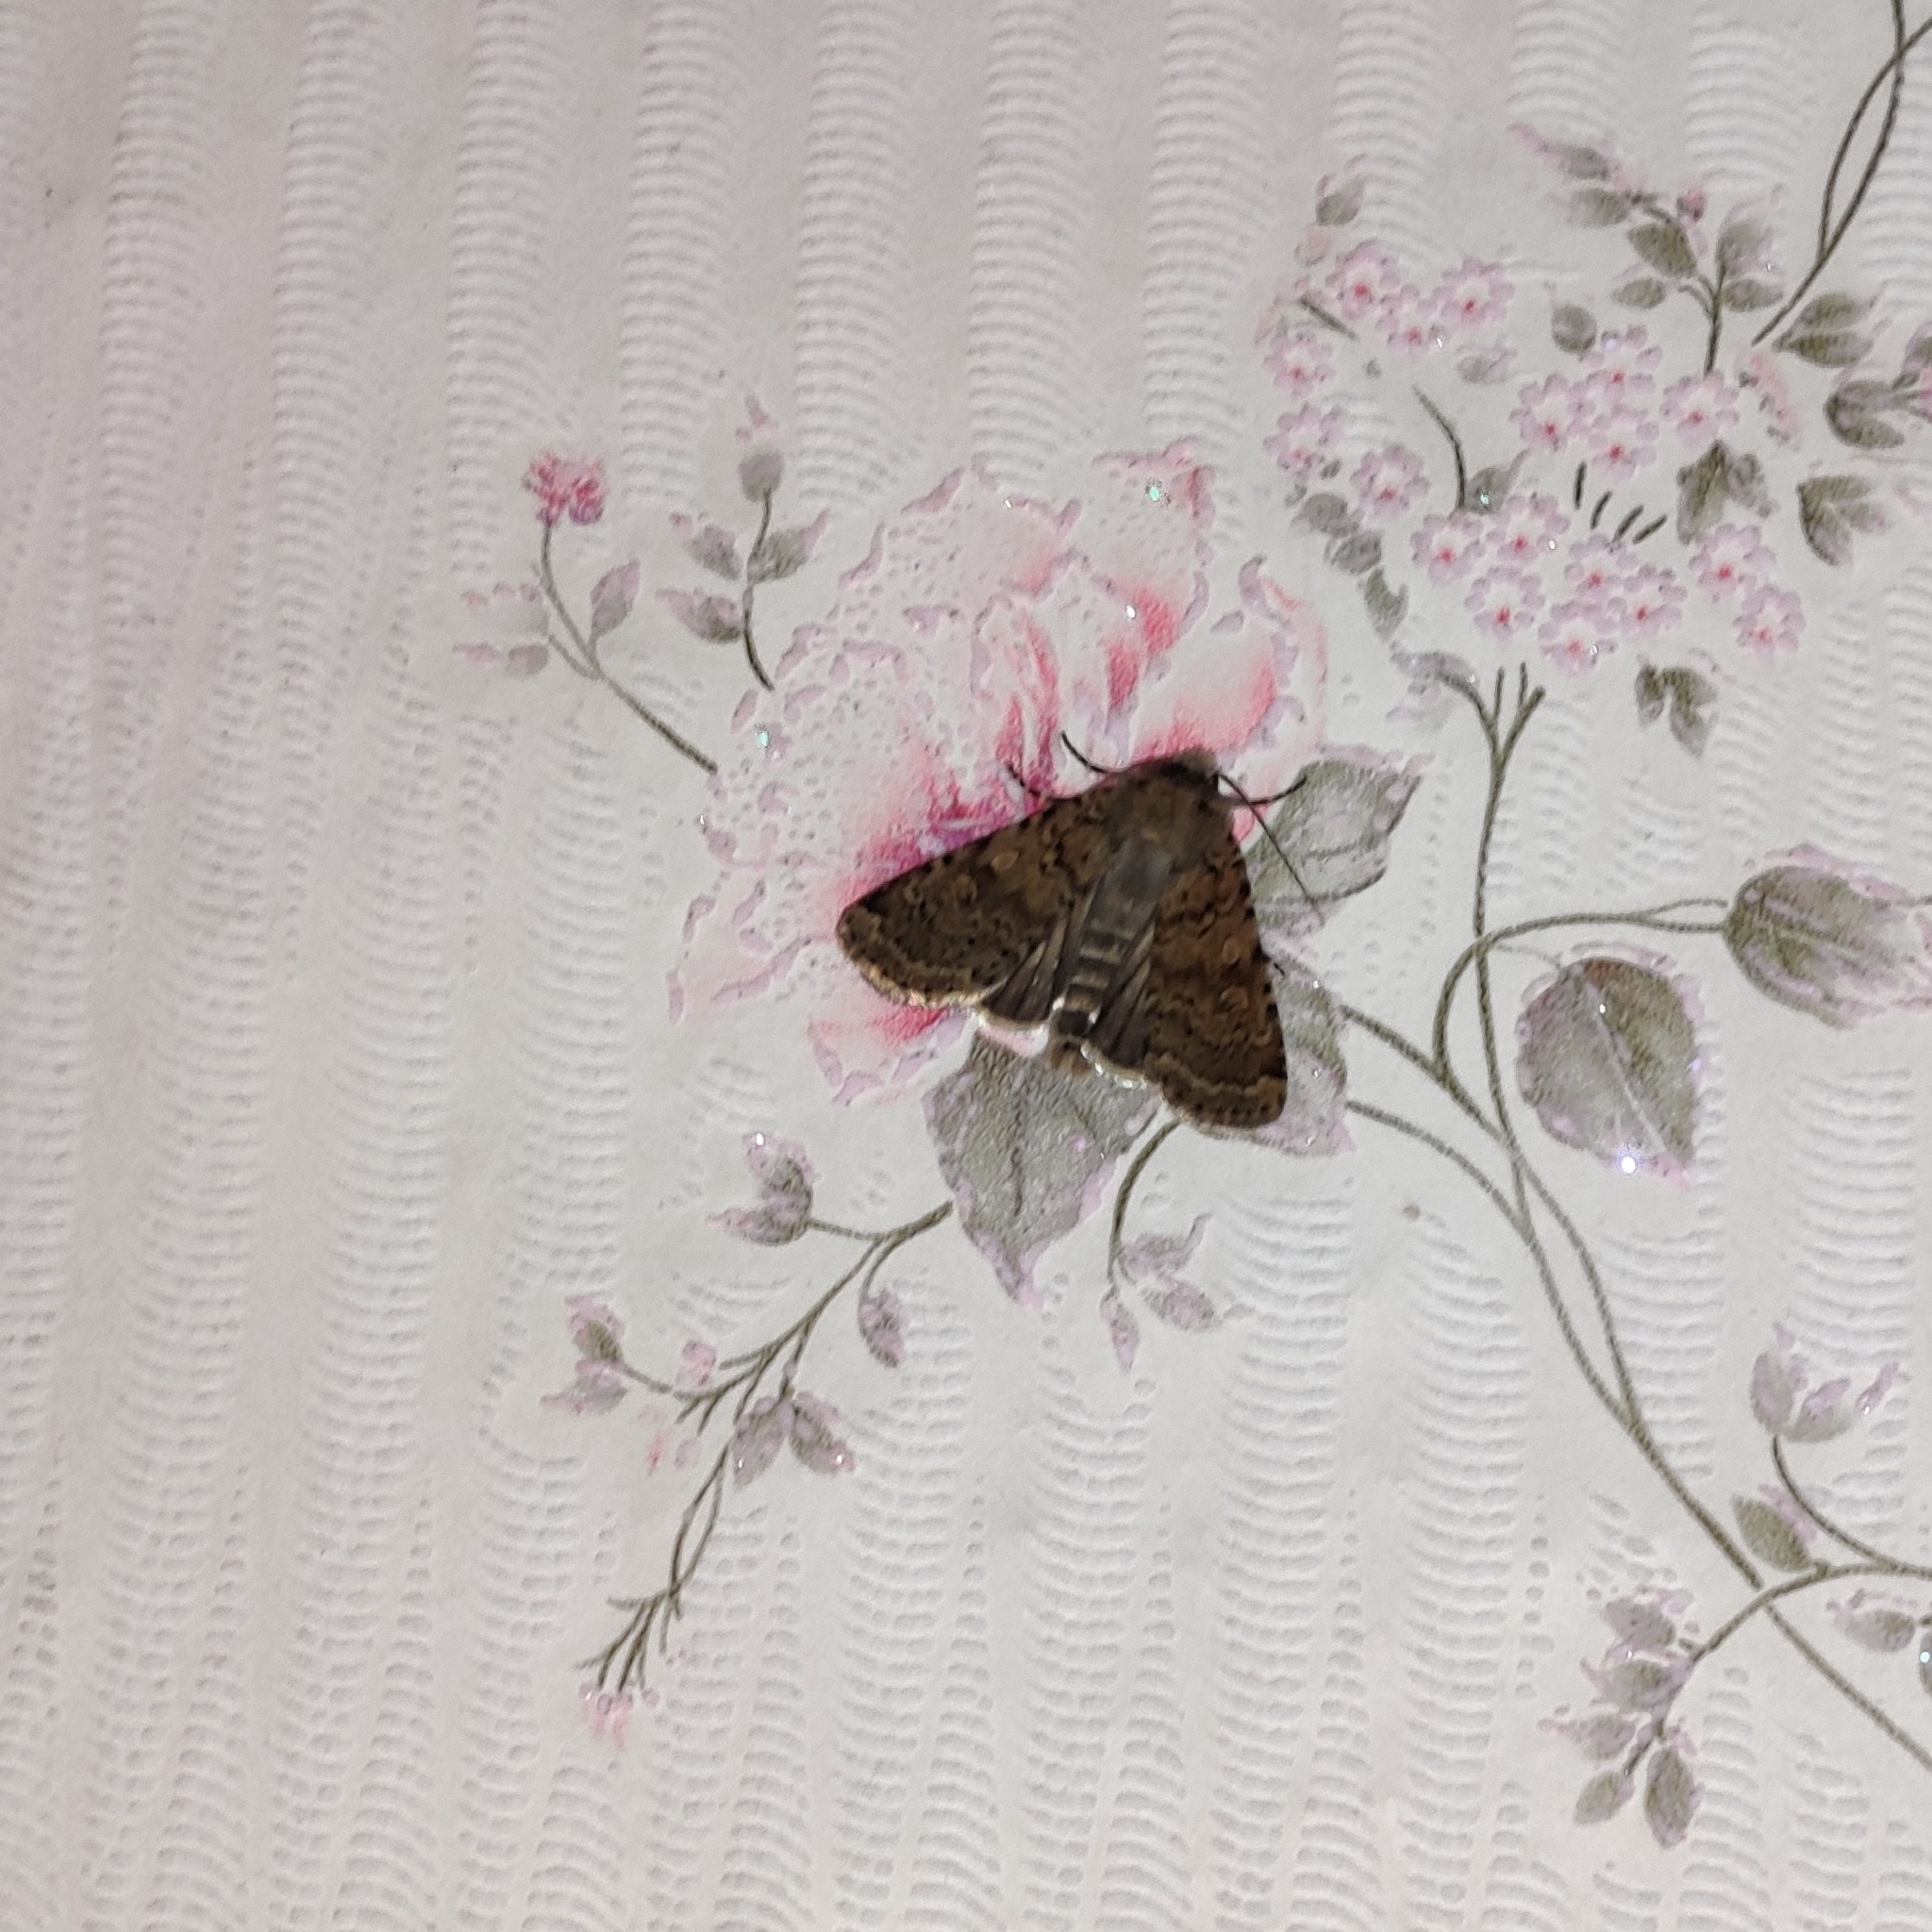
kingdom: Animalia
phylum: Arthropoda
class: Insecta
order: Lepidoptera
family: Noctuidae
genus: Rhyacia
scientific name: Rhyacia simulans
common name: Dotted rustic
